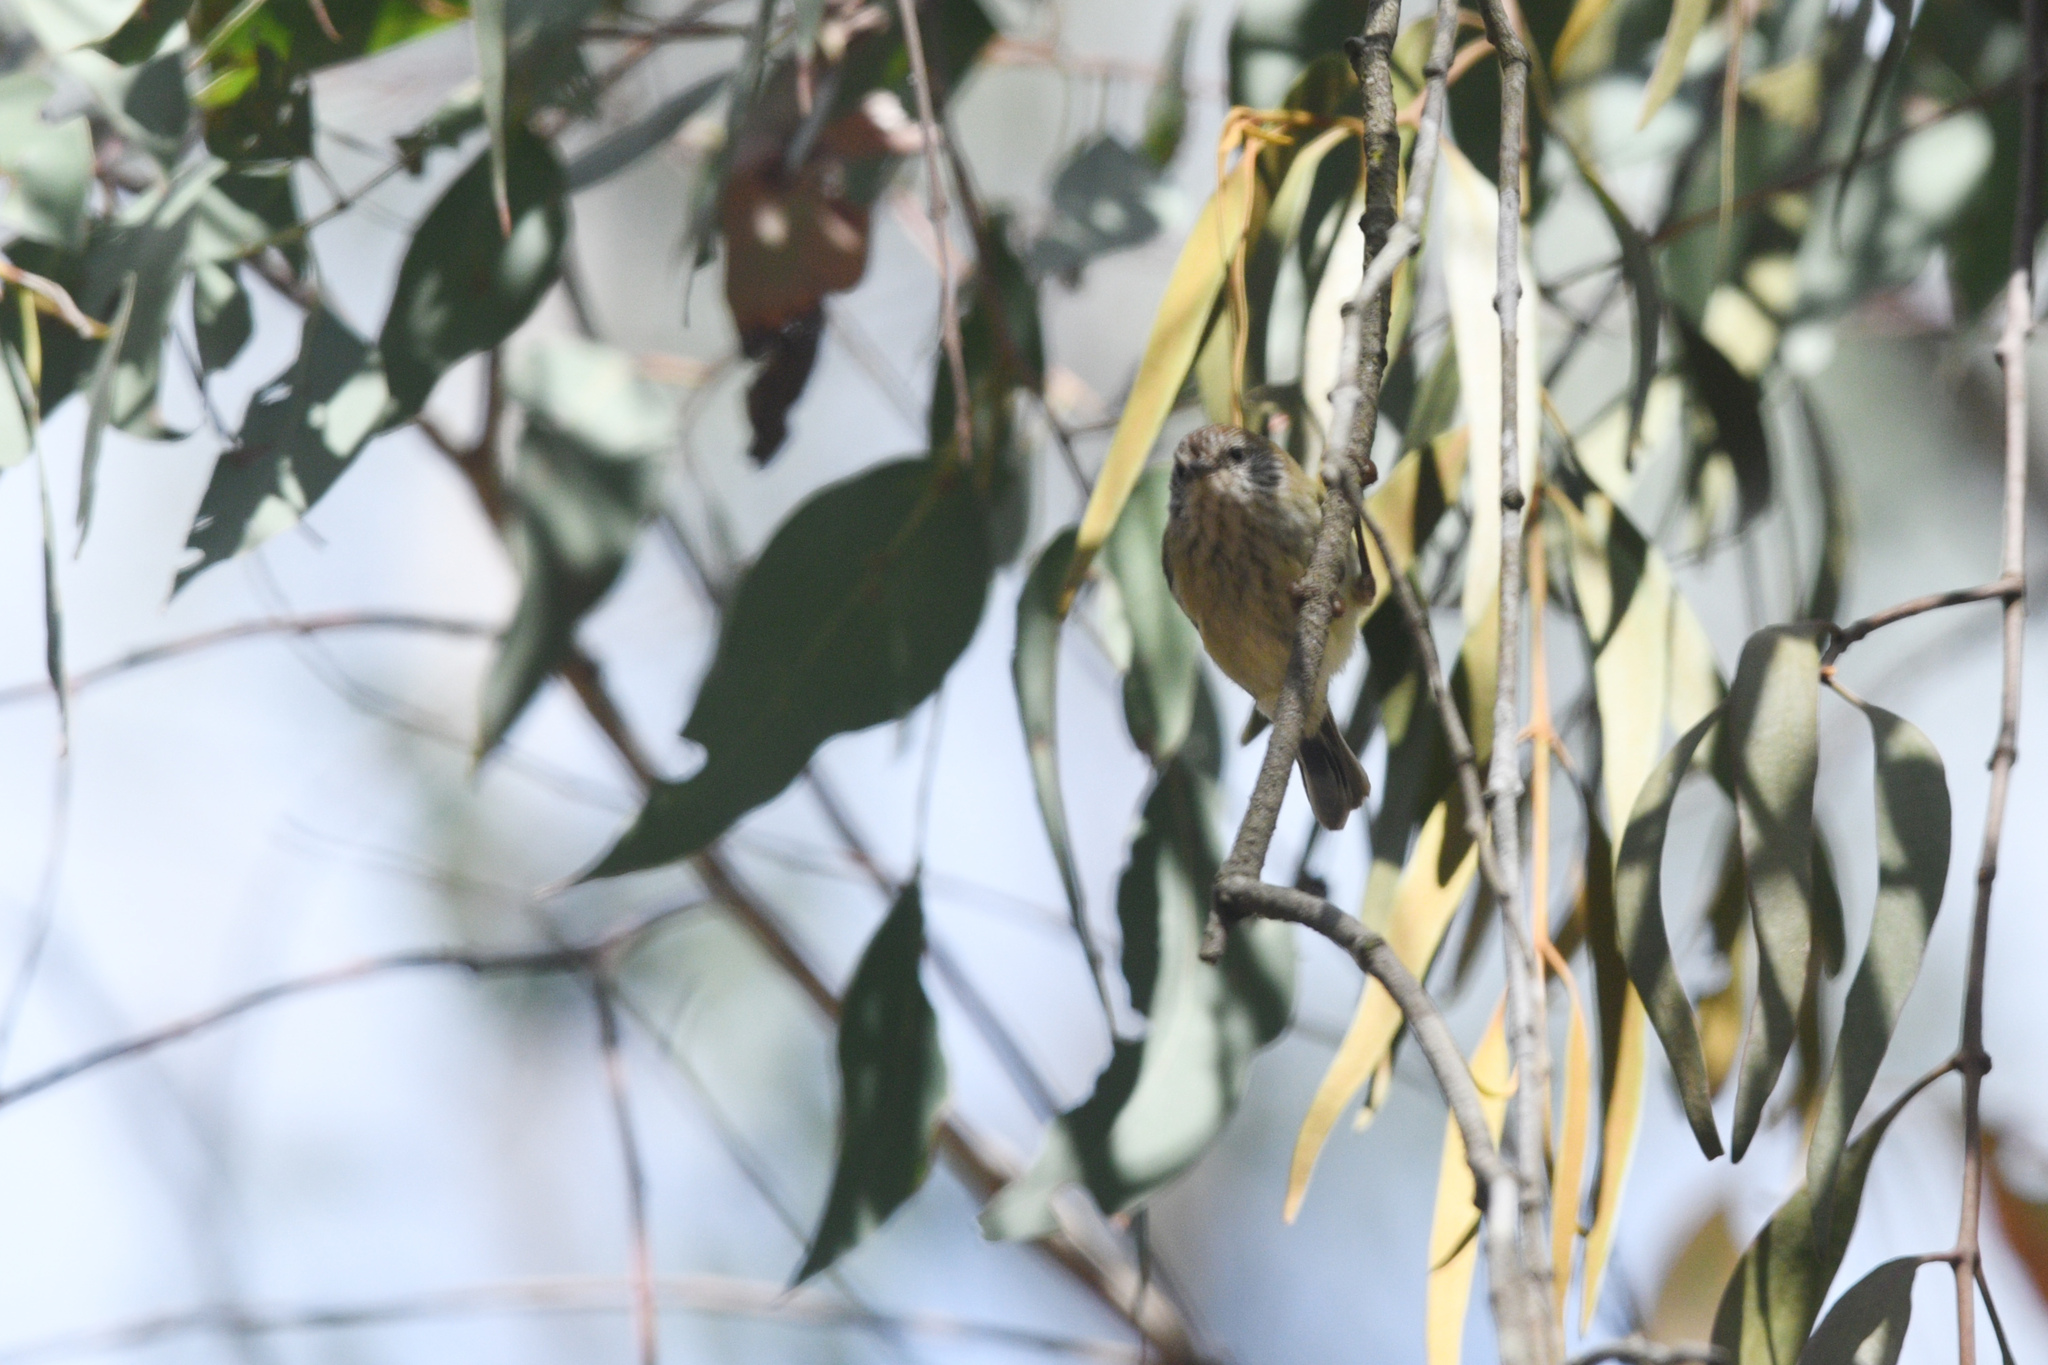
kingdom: Animalia
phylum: Chordata
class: Aves
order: Passeriformes
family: Acanthizidae
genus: Acanthiza
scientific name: Acanthiza lineata
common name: Striated thornbill
